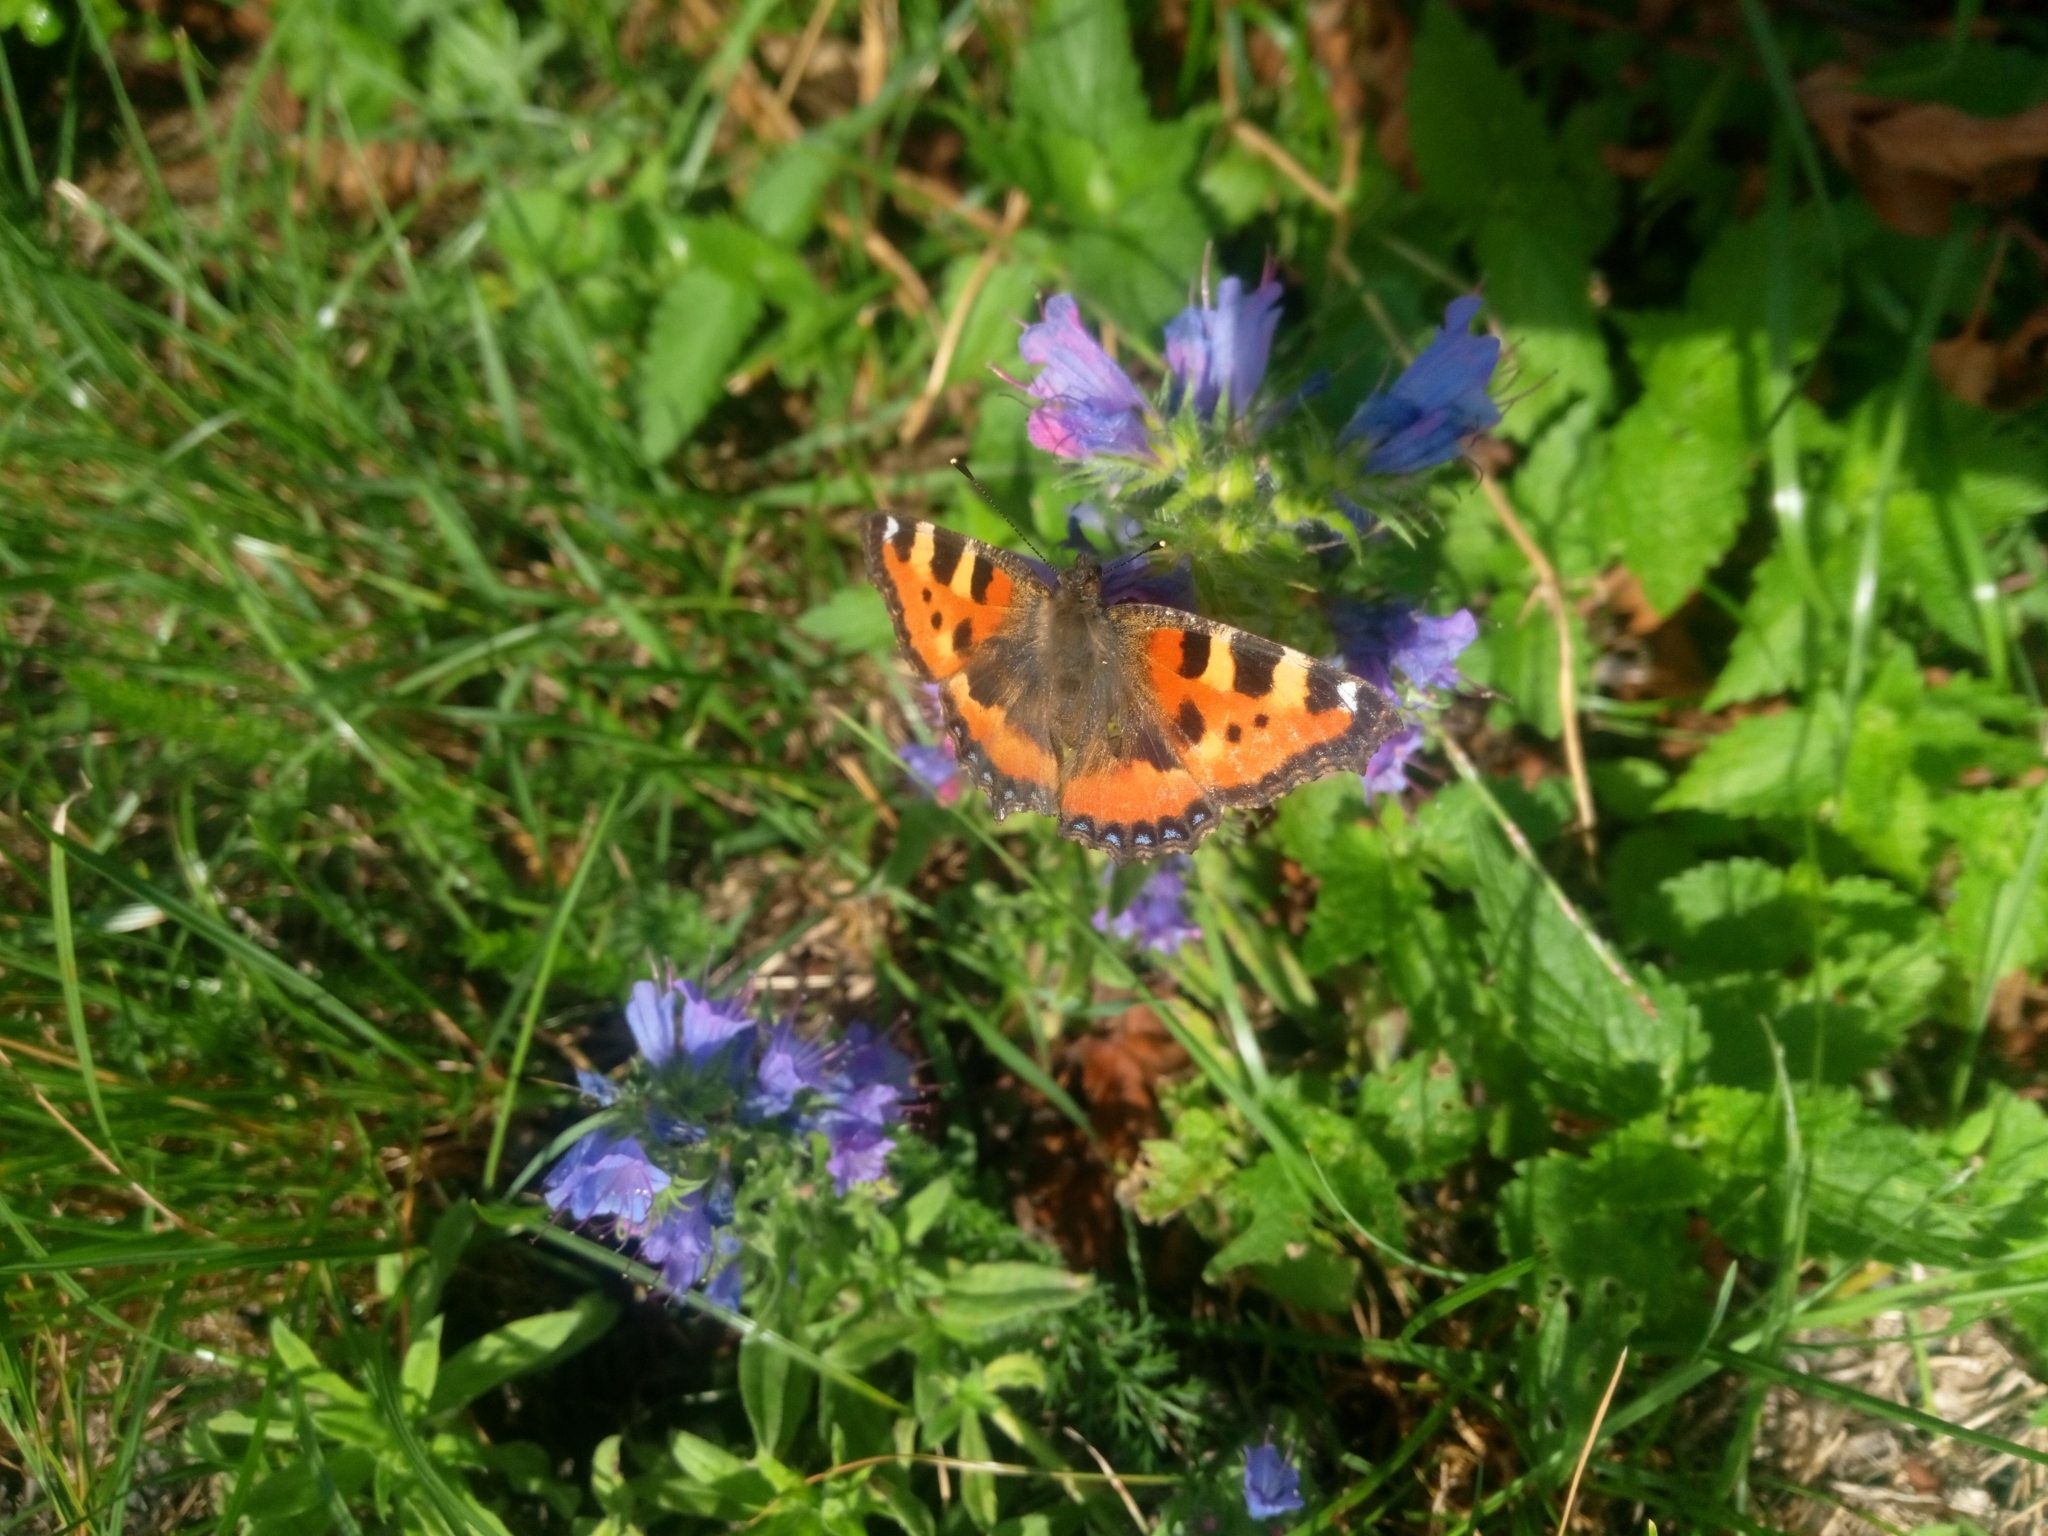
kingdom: Animalia
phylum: Arthropoda
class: Insecta
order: Lepidoptera
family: Nymphalidae
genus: Aglais
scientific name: Aglais urticae
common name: Small tortoiseshell
